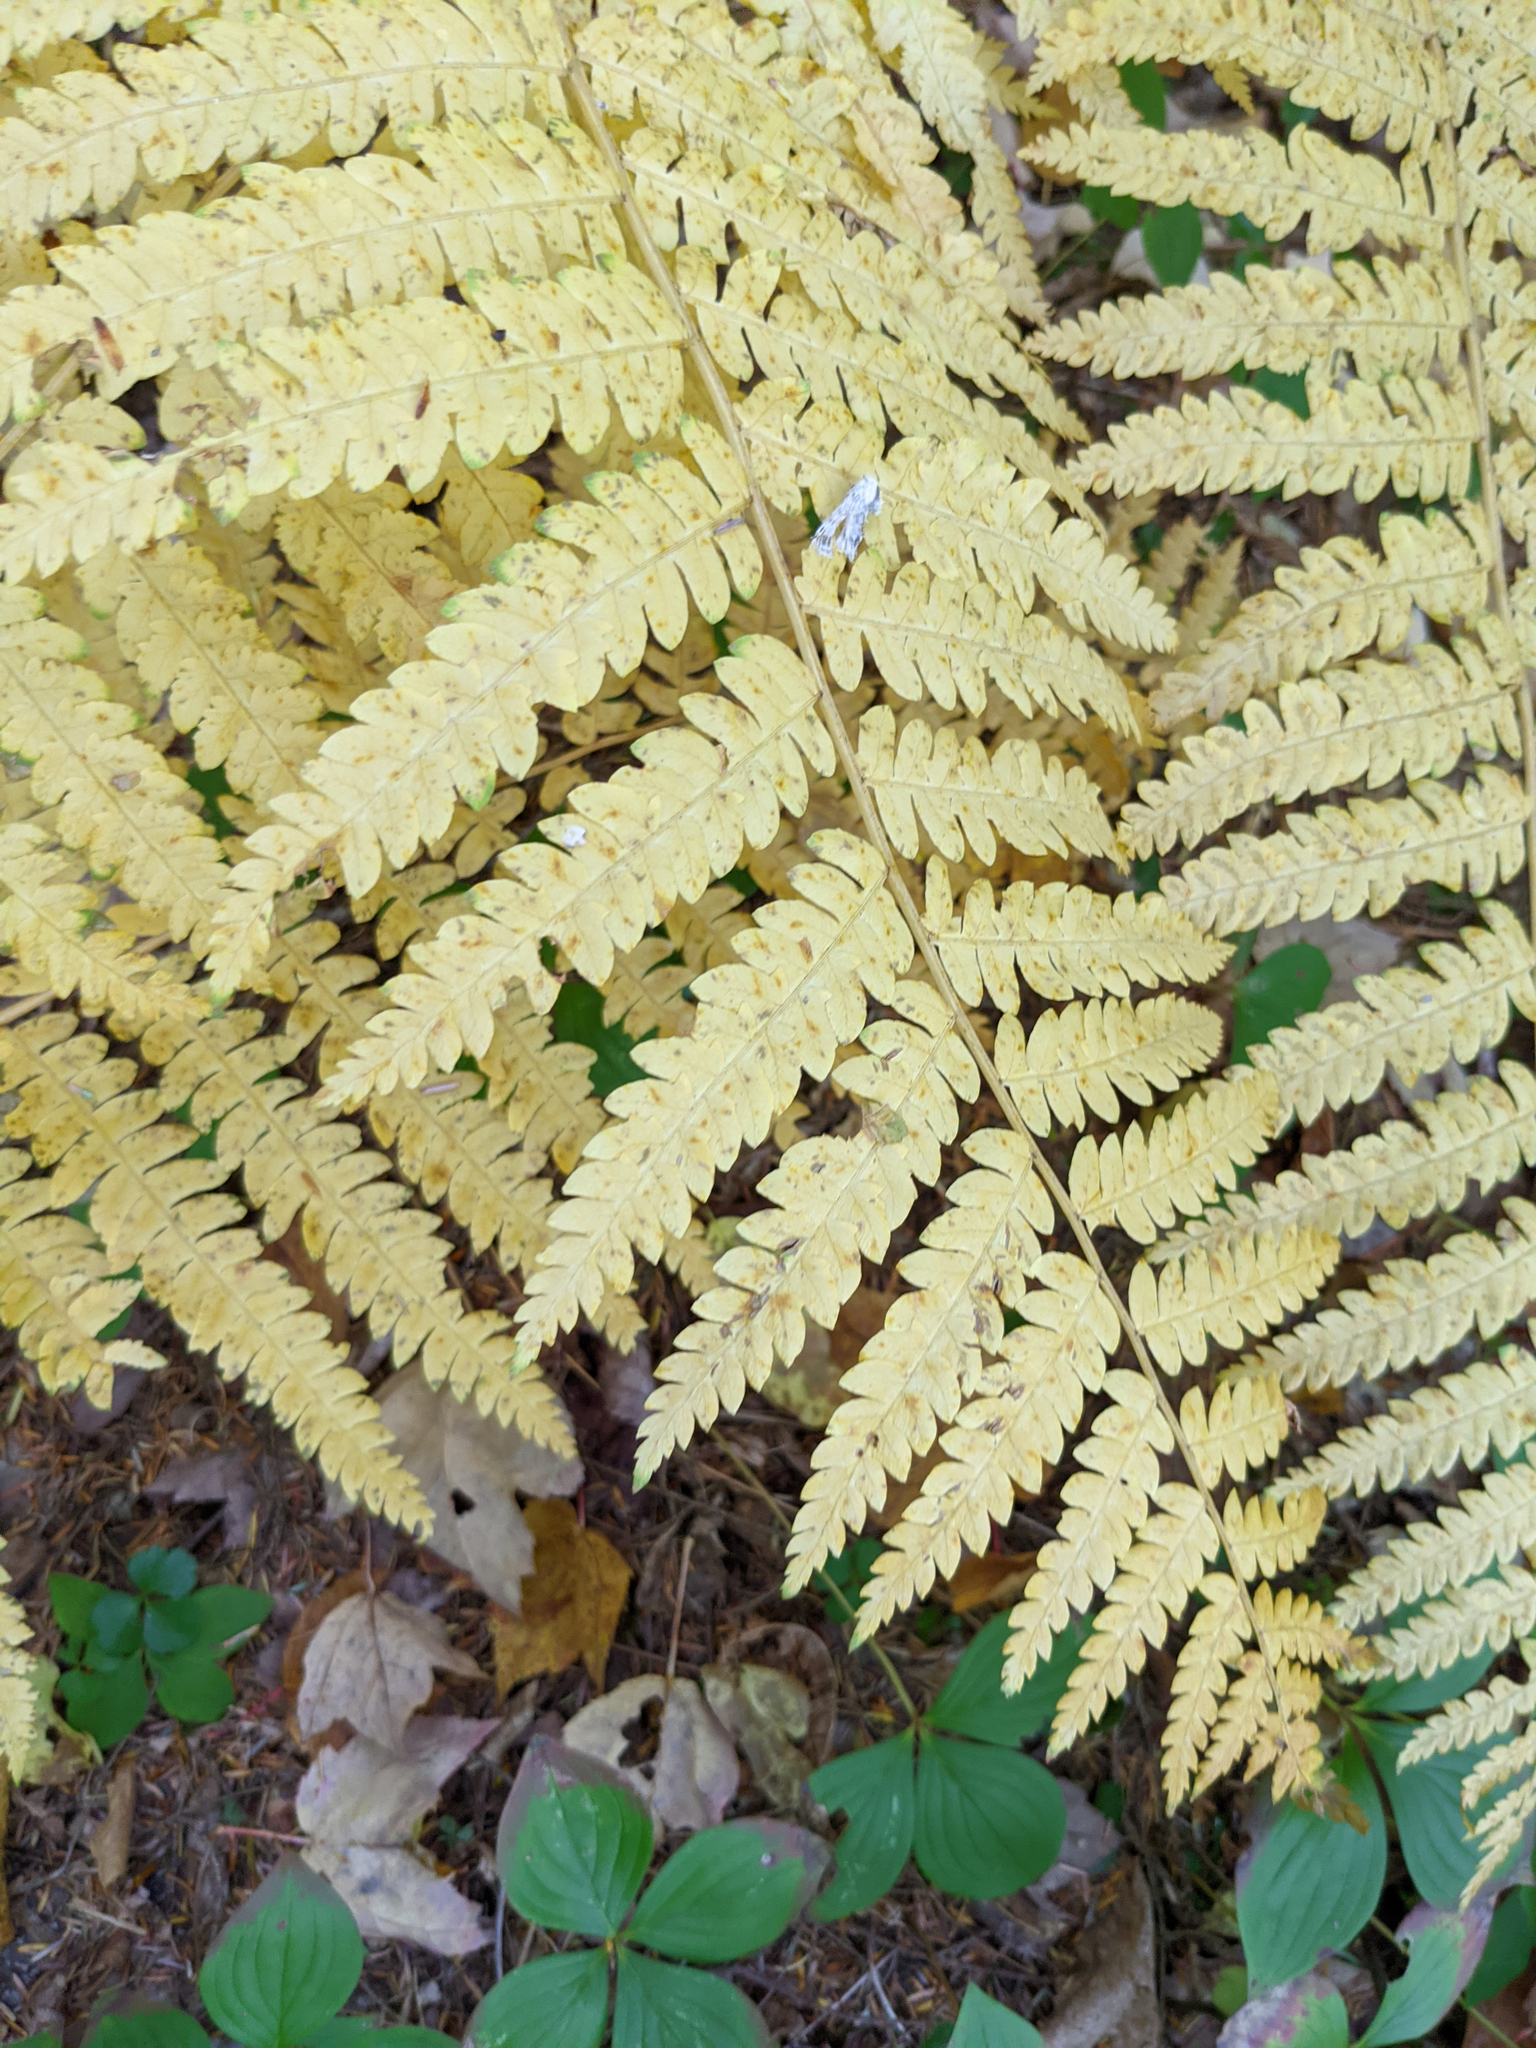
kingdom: Plantae
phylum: Tracheophyta
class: Polypodiopsida
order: Osmundales
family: Osmundaceae
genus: Osmundastrum
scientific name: Osmundastrum cinnamomeum
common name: Cinnamon fern
